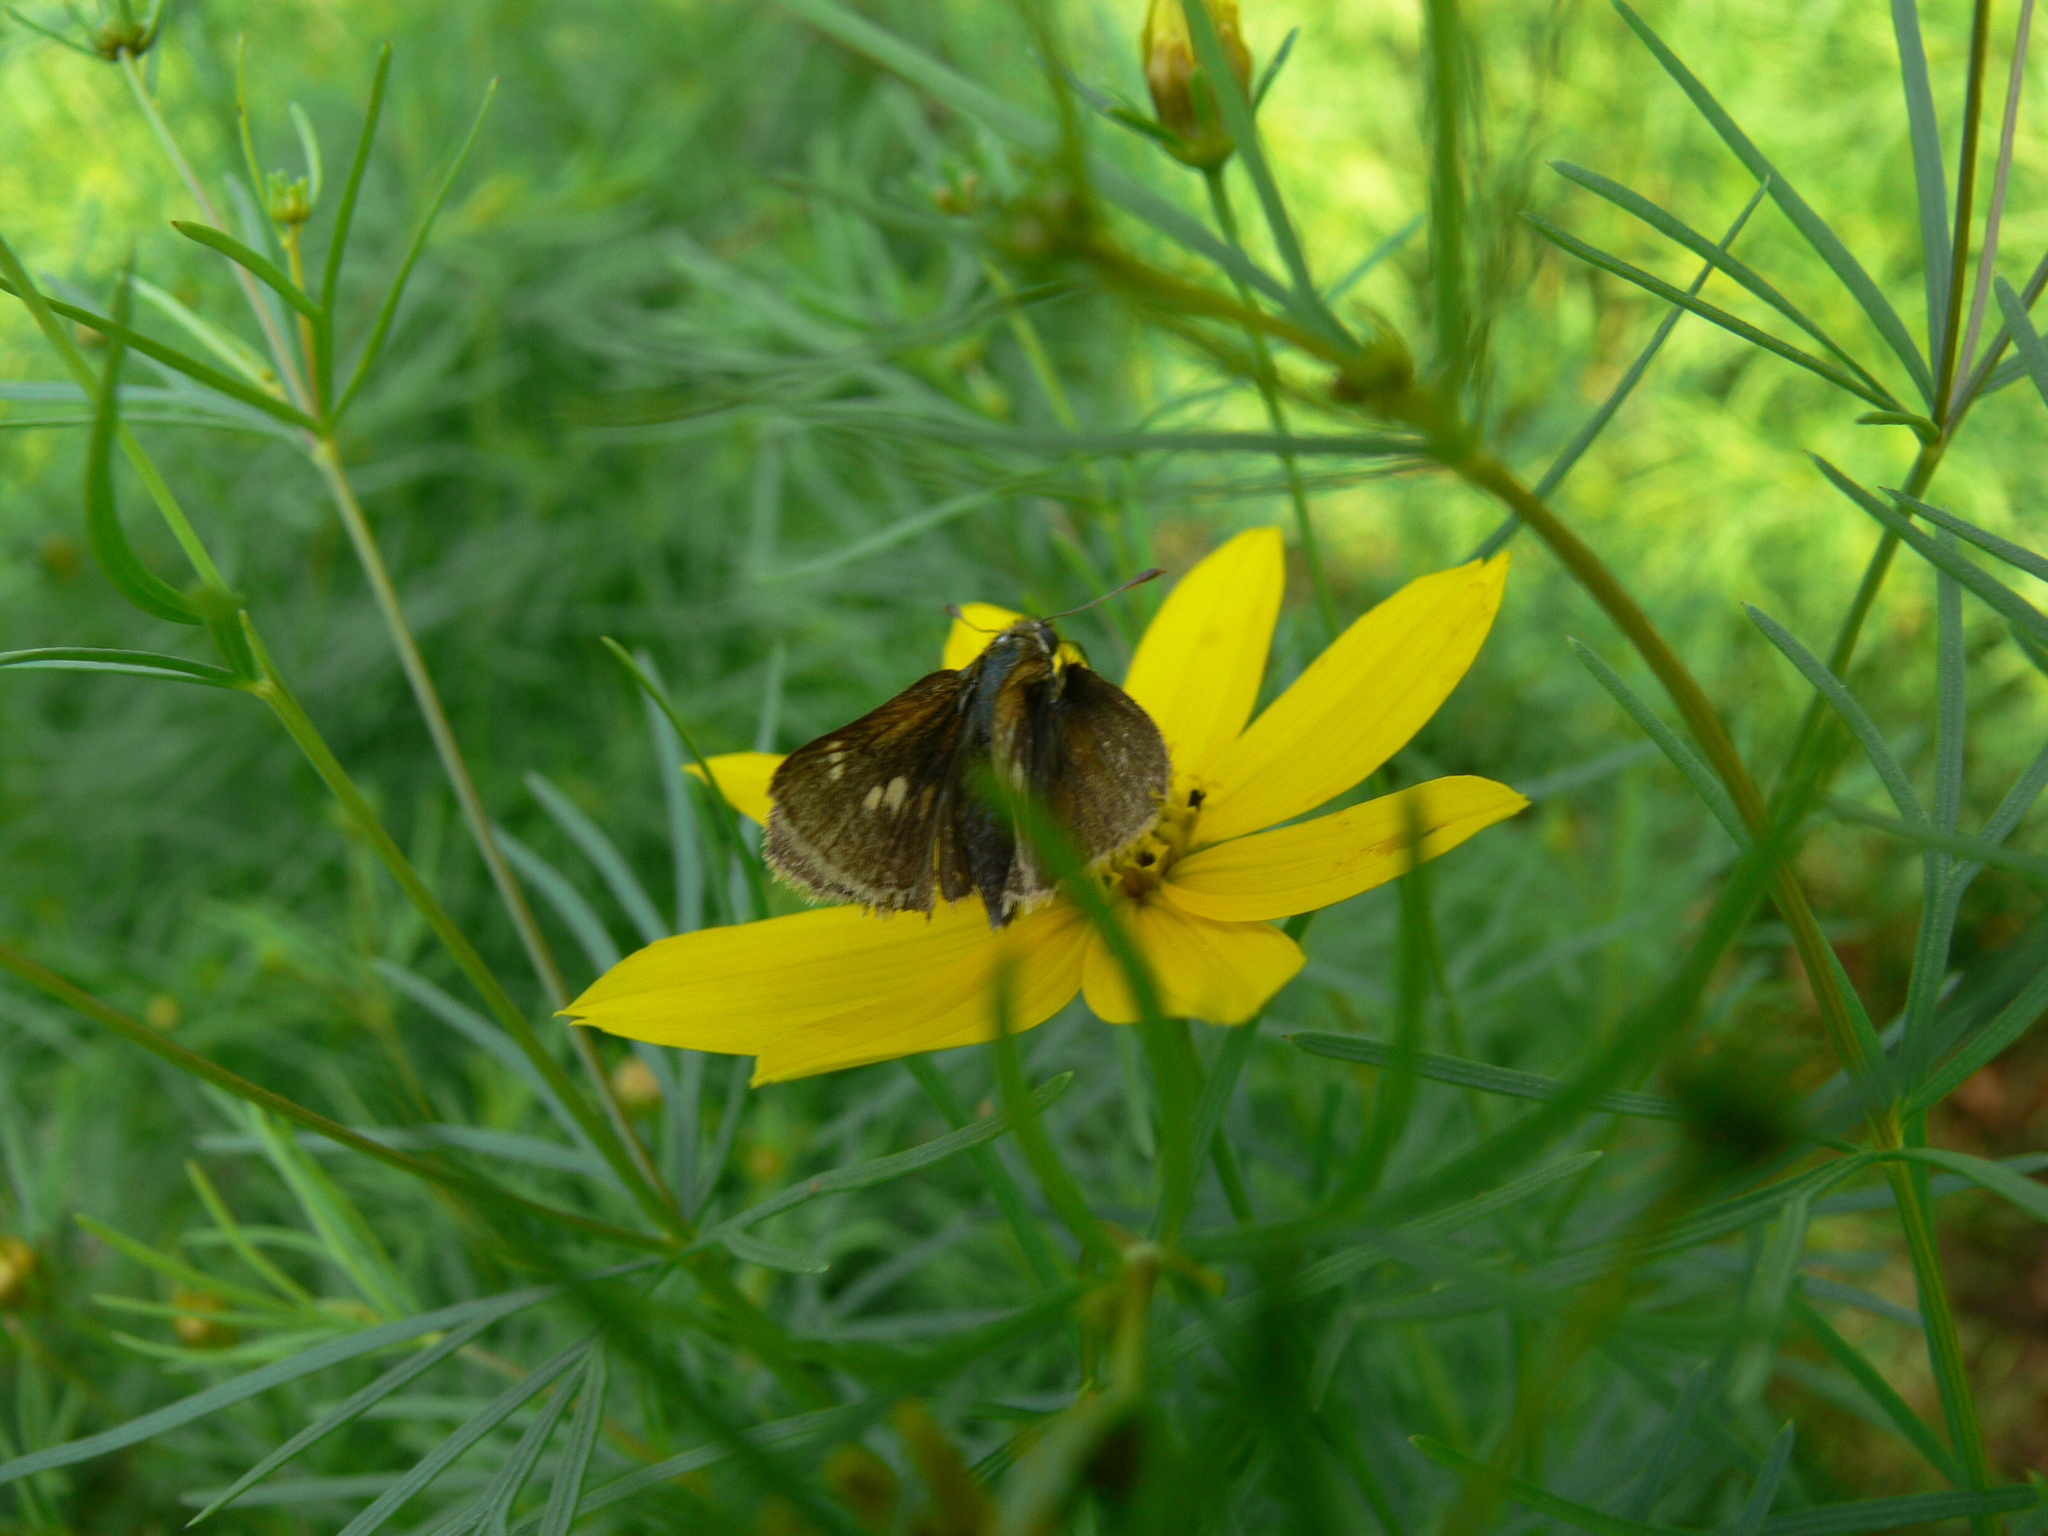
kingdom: Animalia
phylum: Arthropoda
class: Insecta
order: Lepidoptera
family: Hesperiidae
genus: Polites
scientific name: Polites themistocles
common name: Tawny-edged skipper
